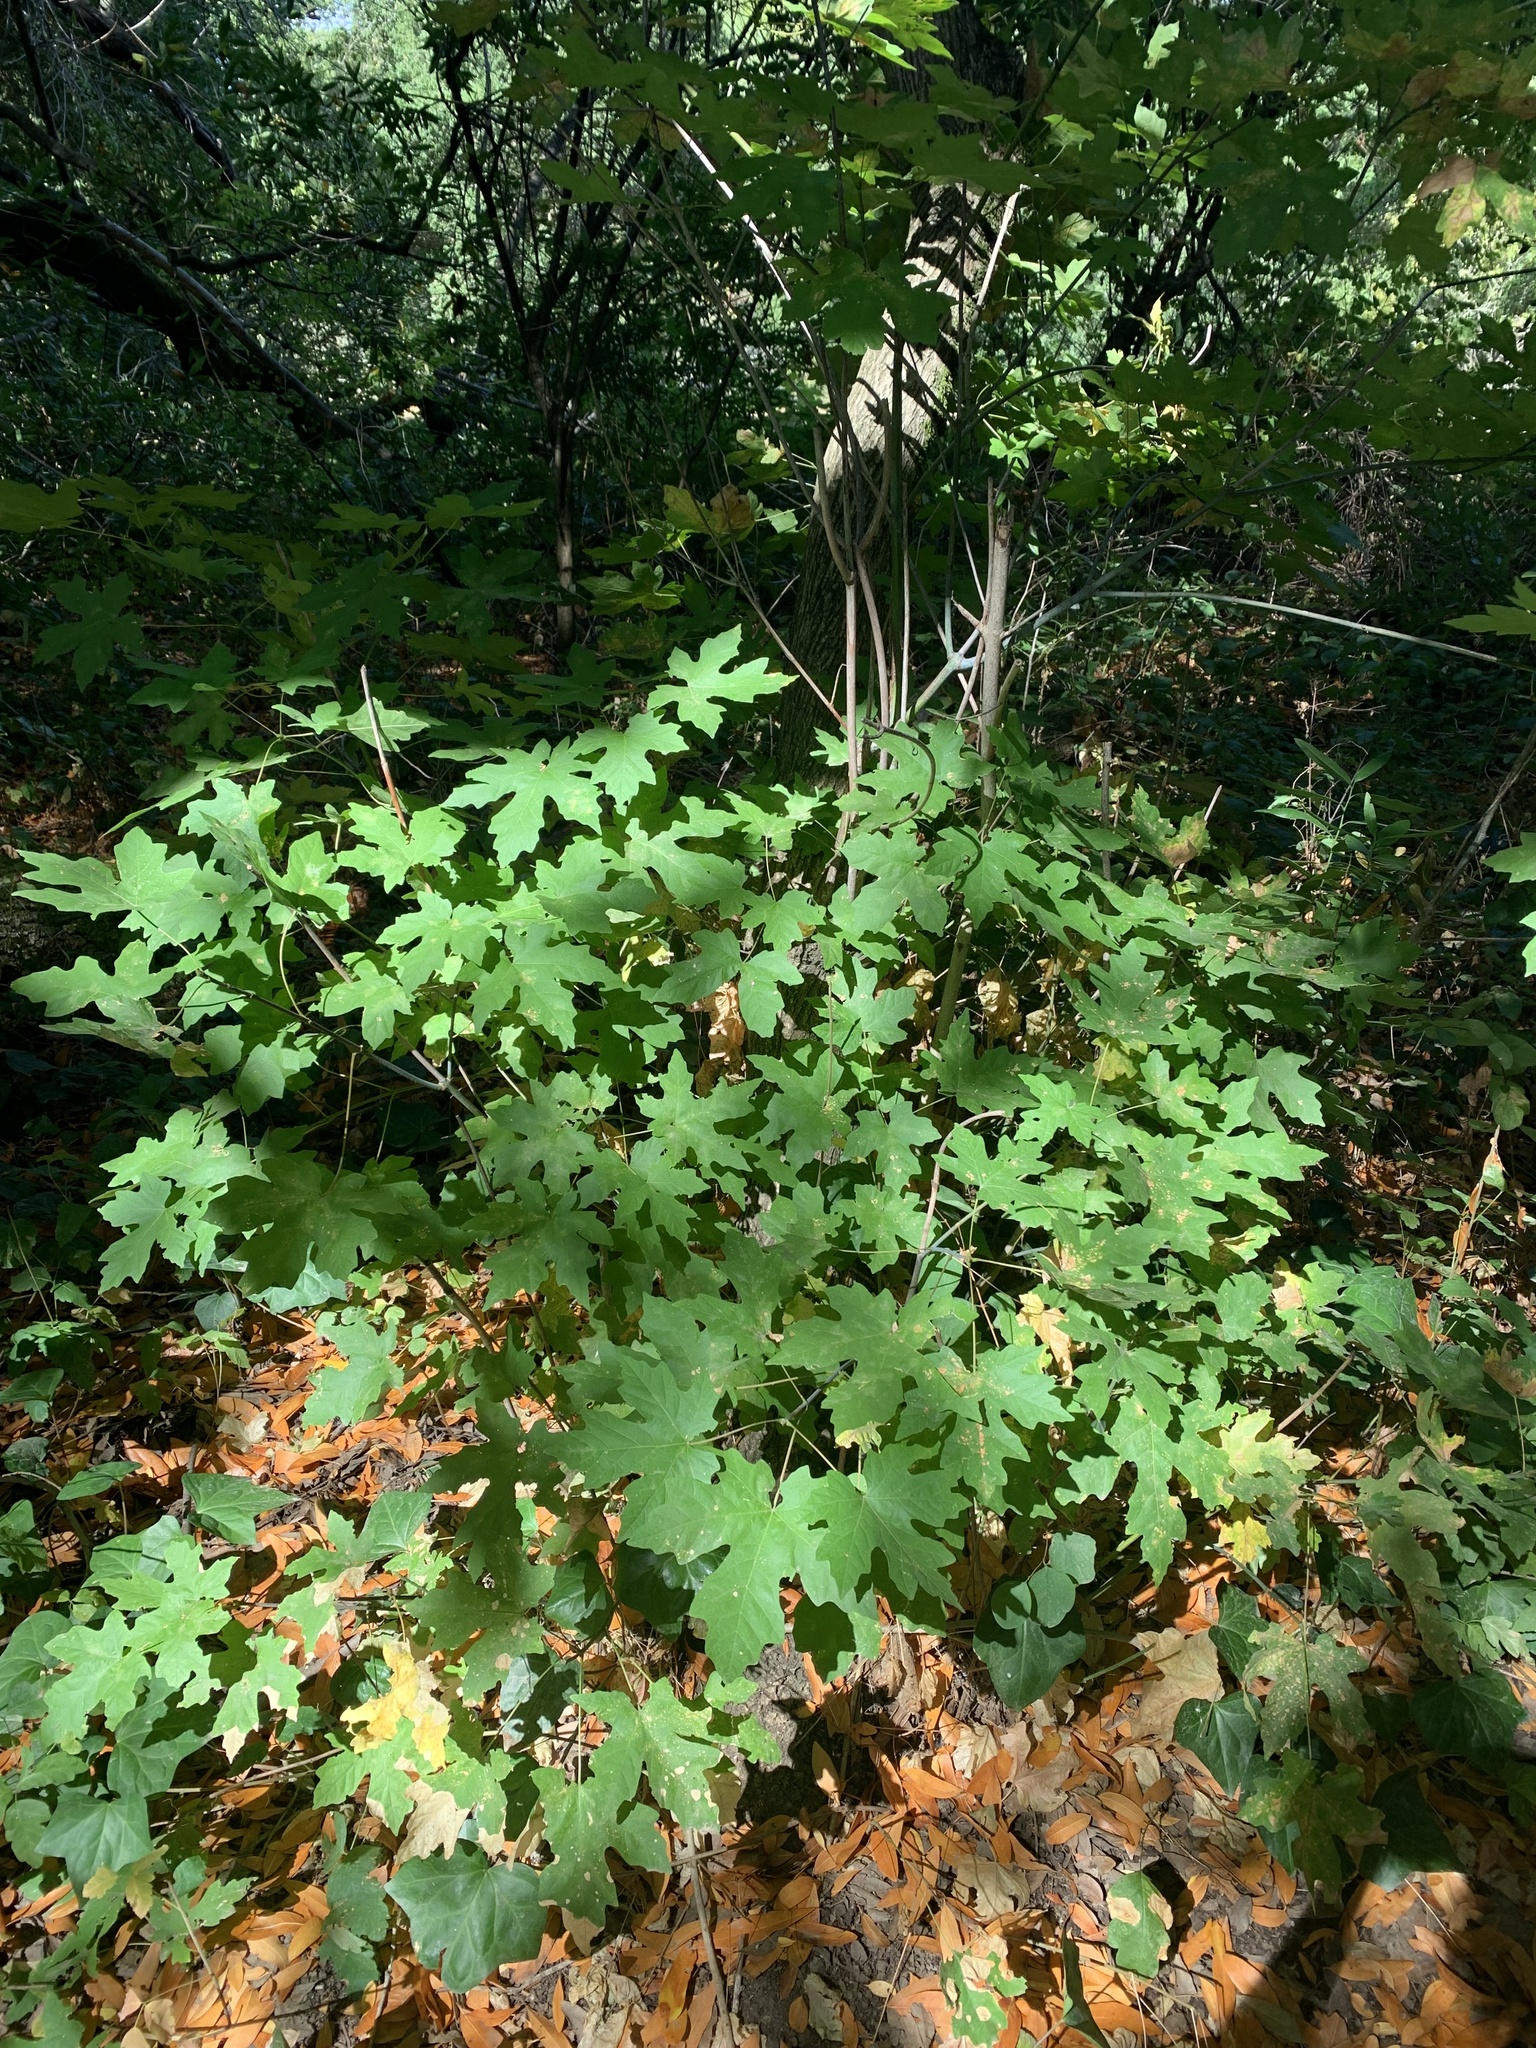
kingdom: Plantae
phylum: Tracheophyta
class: Magnoliopsida
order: Sapindales
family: Sapindaceae
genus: Acer
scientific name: Acer macrophyllum
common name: Oregon maple
